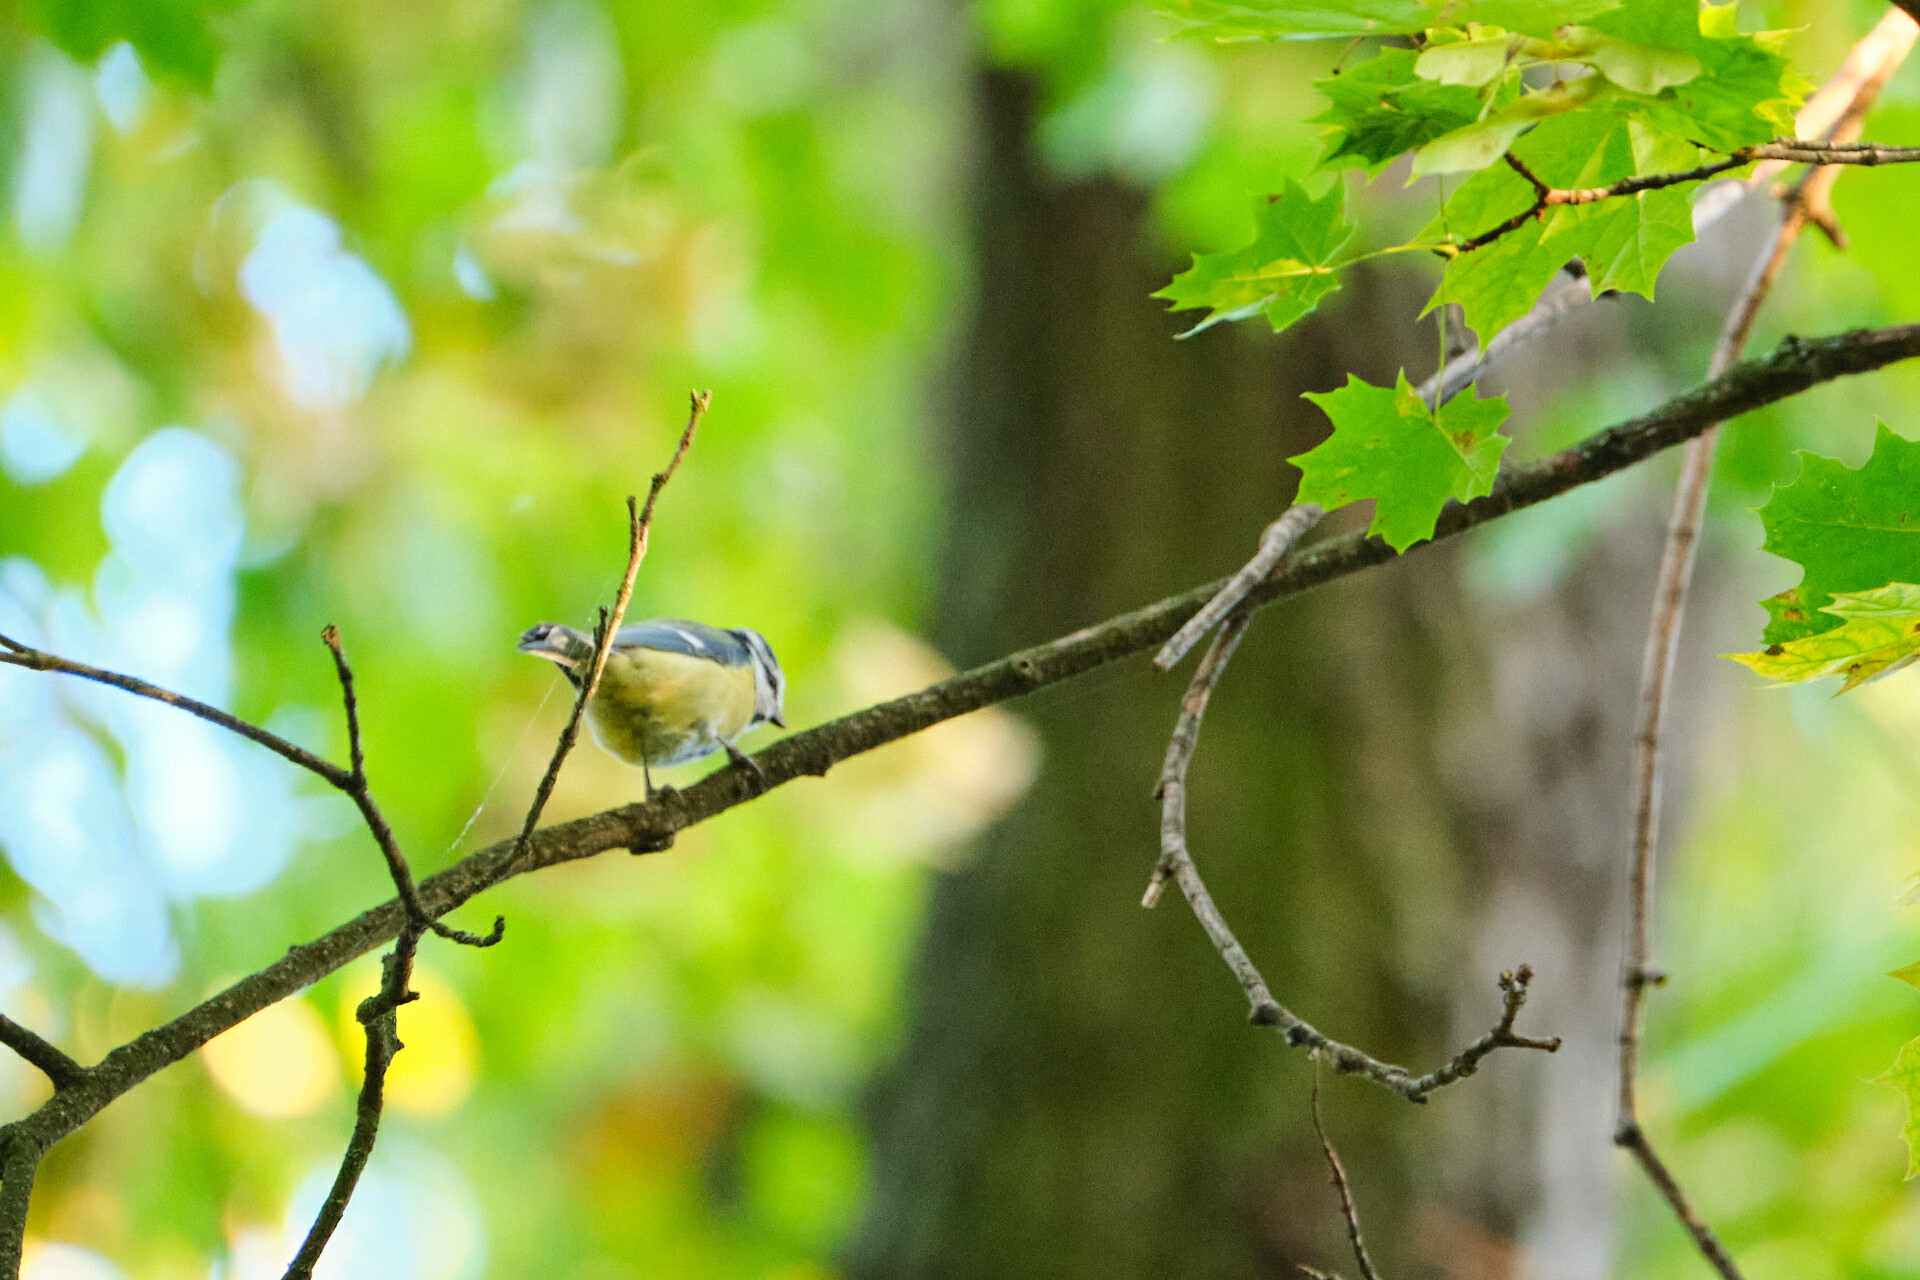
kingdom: Animalia
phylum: Chordata
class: Aves
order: Passeriformes
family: Paridae
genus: Cyanistes
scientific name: Cyanistes caeruleus
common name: Eurasian blue tit
